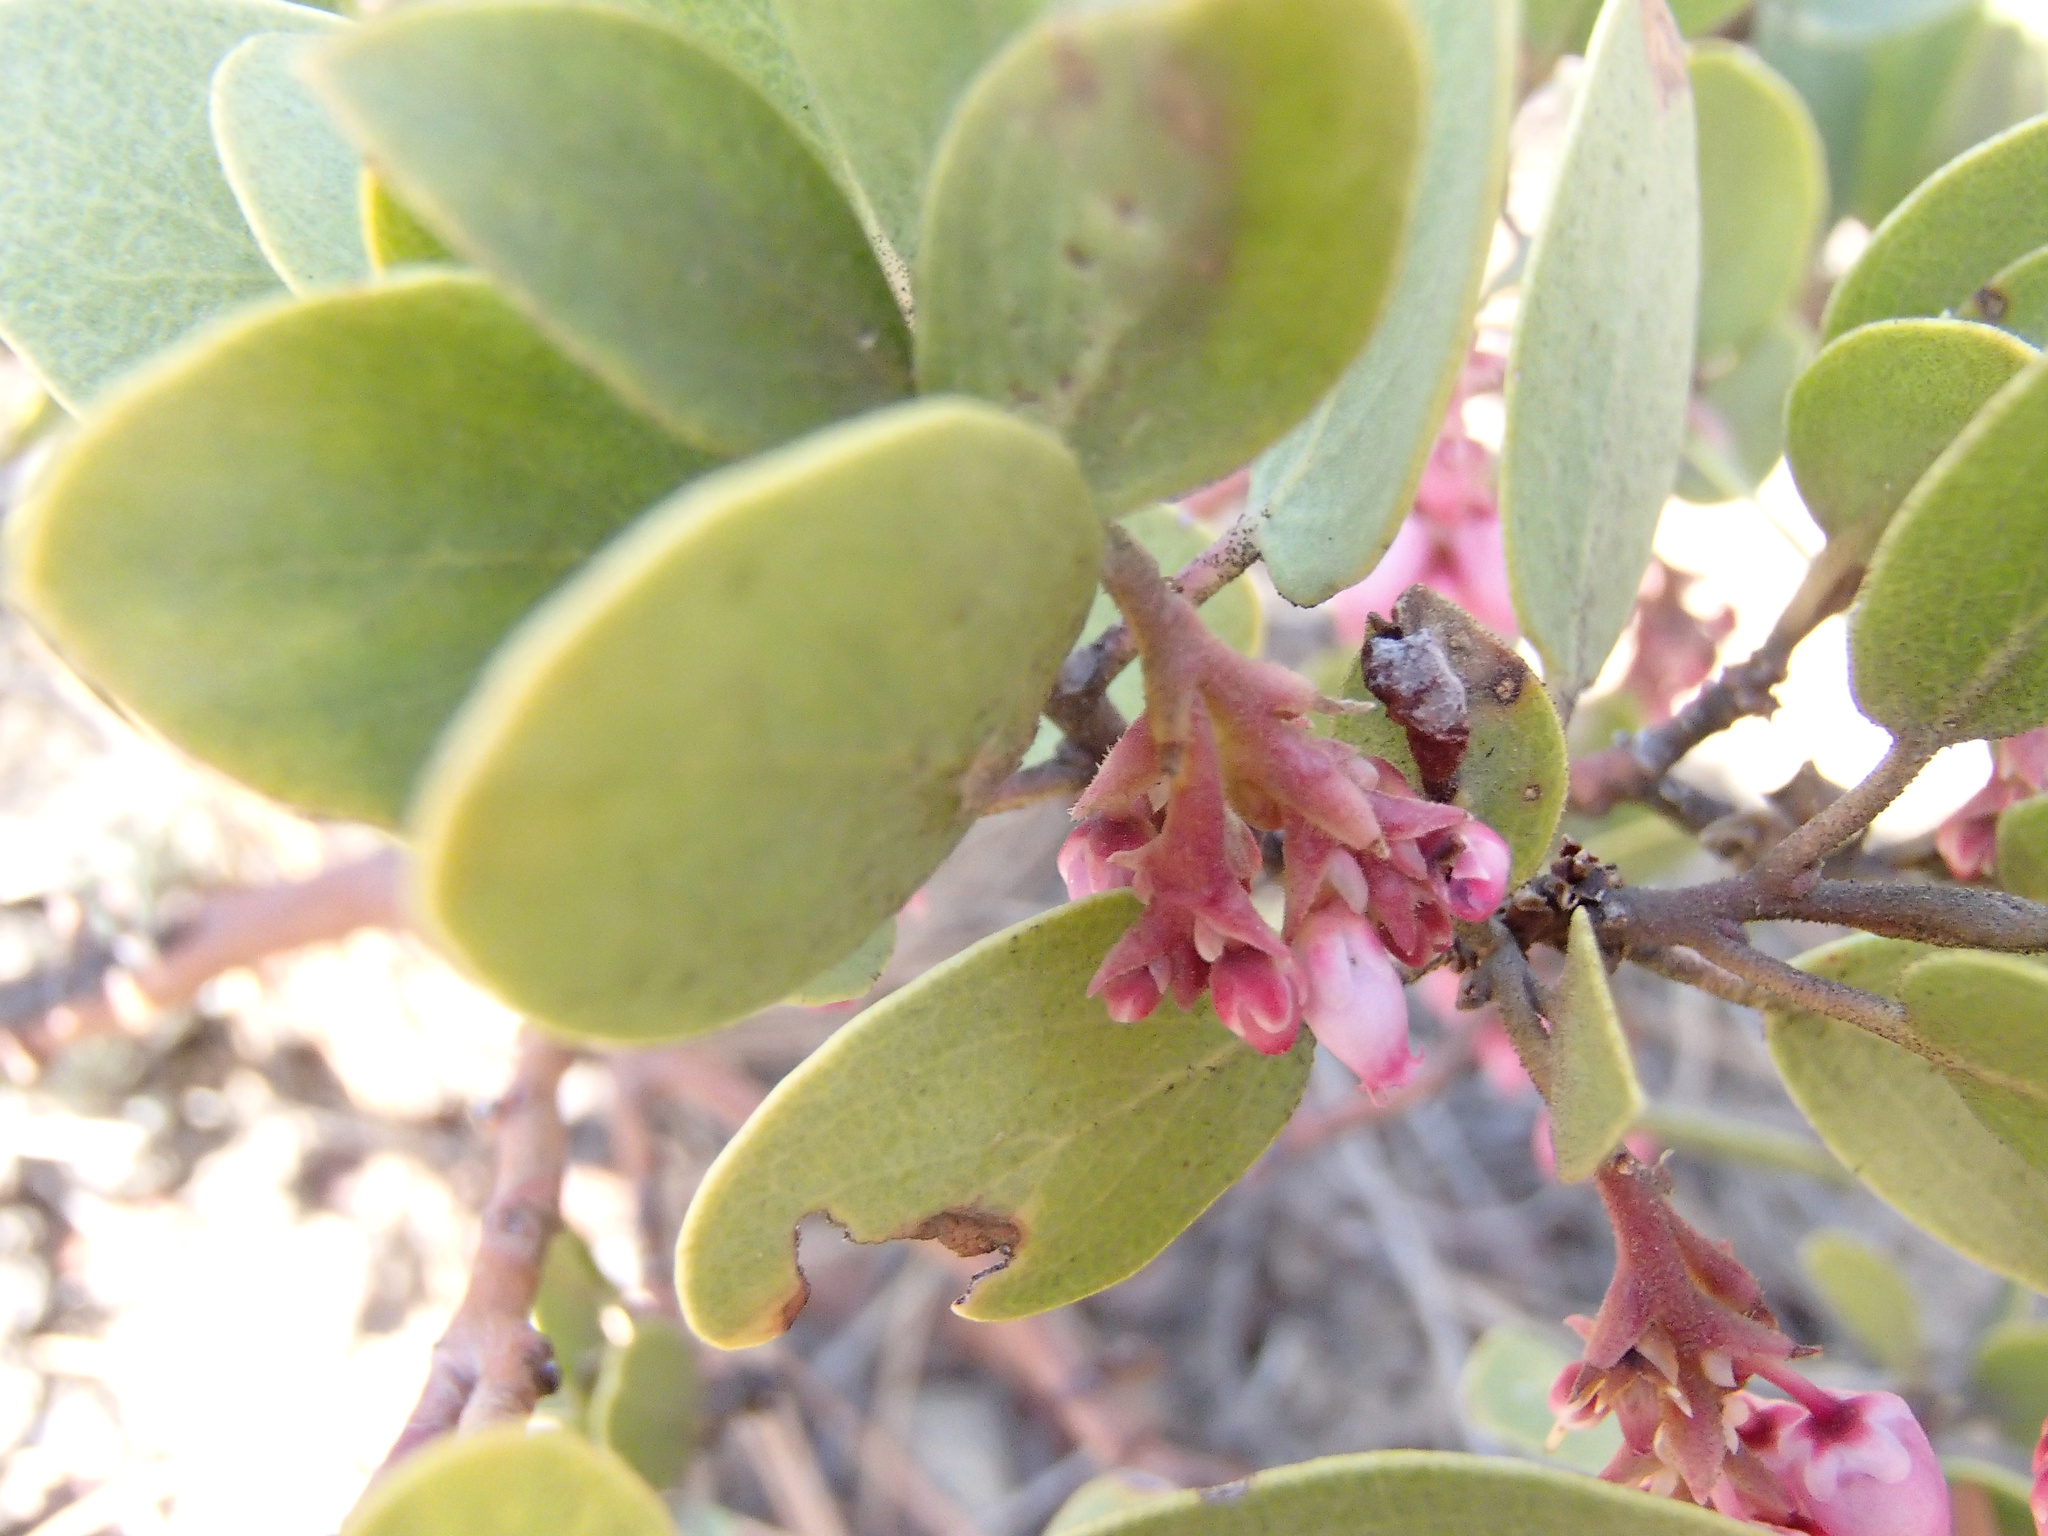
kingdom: Plantae
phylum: Tracheophyta
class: Magnoliopsida
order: Ericales
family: Ericaceae
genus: Arctostaphylos
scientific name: Arctostaphylos patula
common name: Green-leaf manzanita
